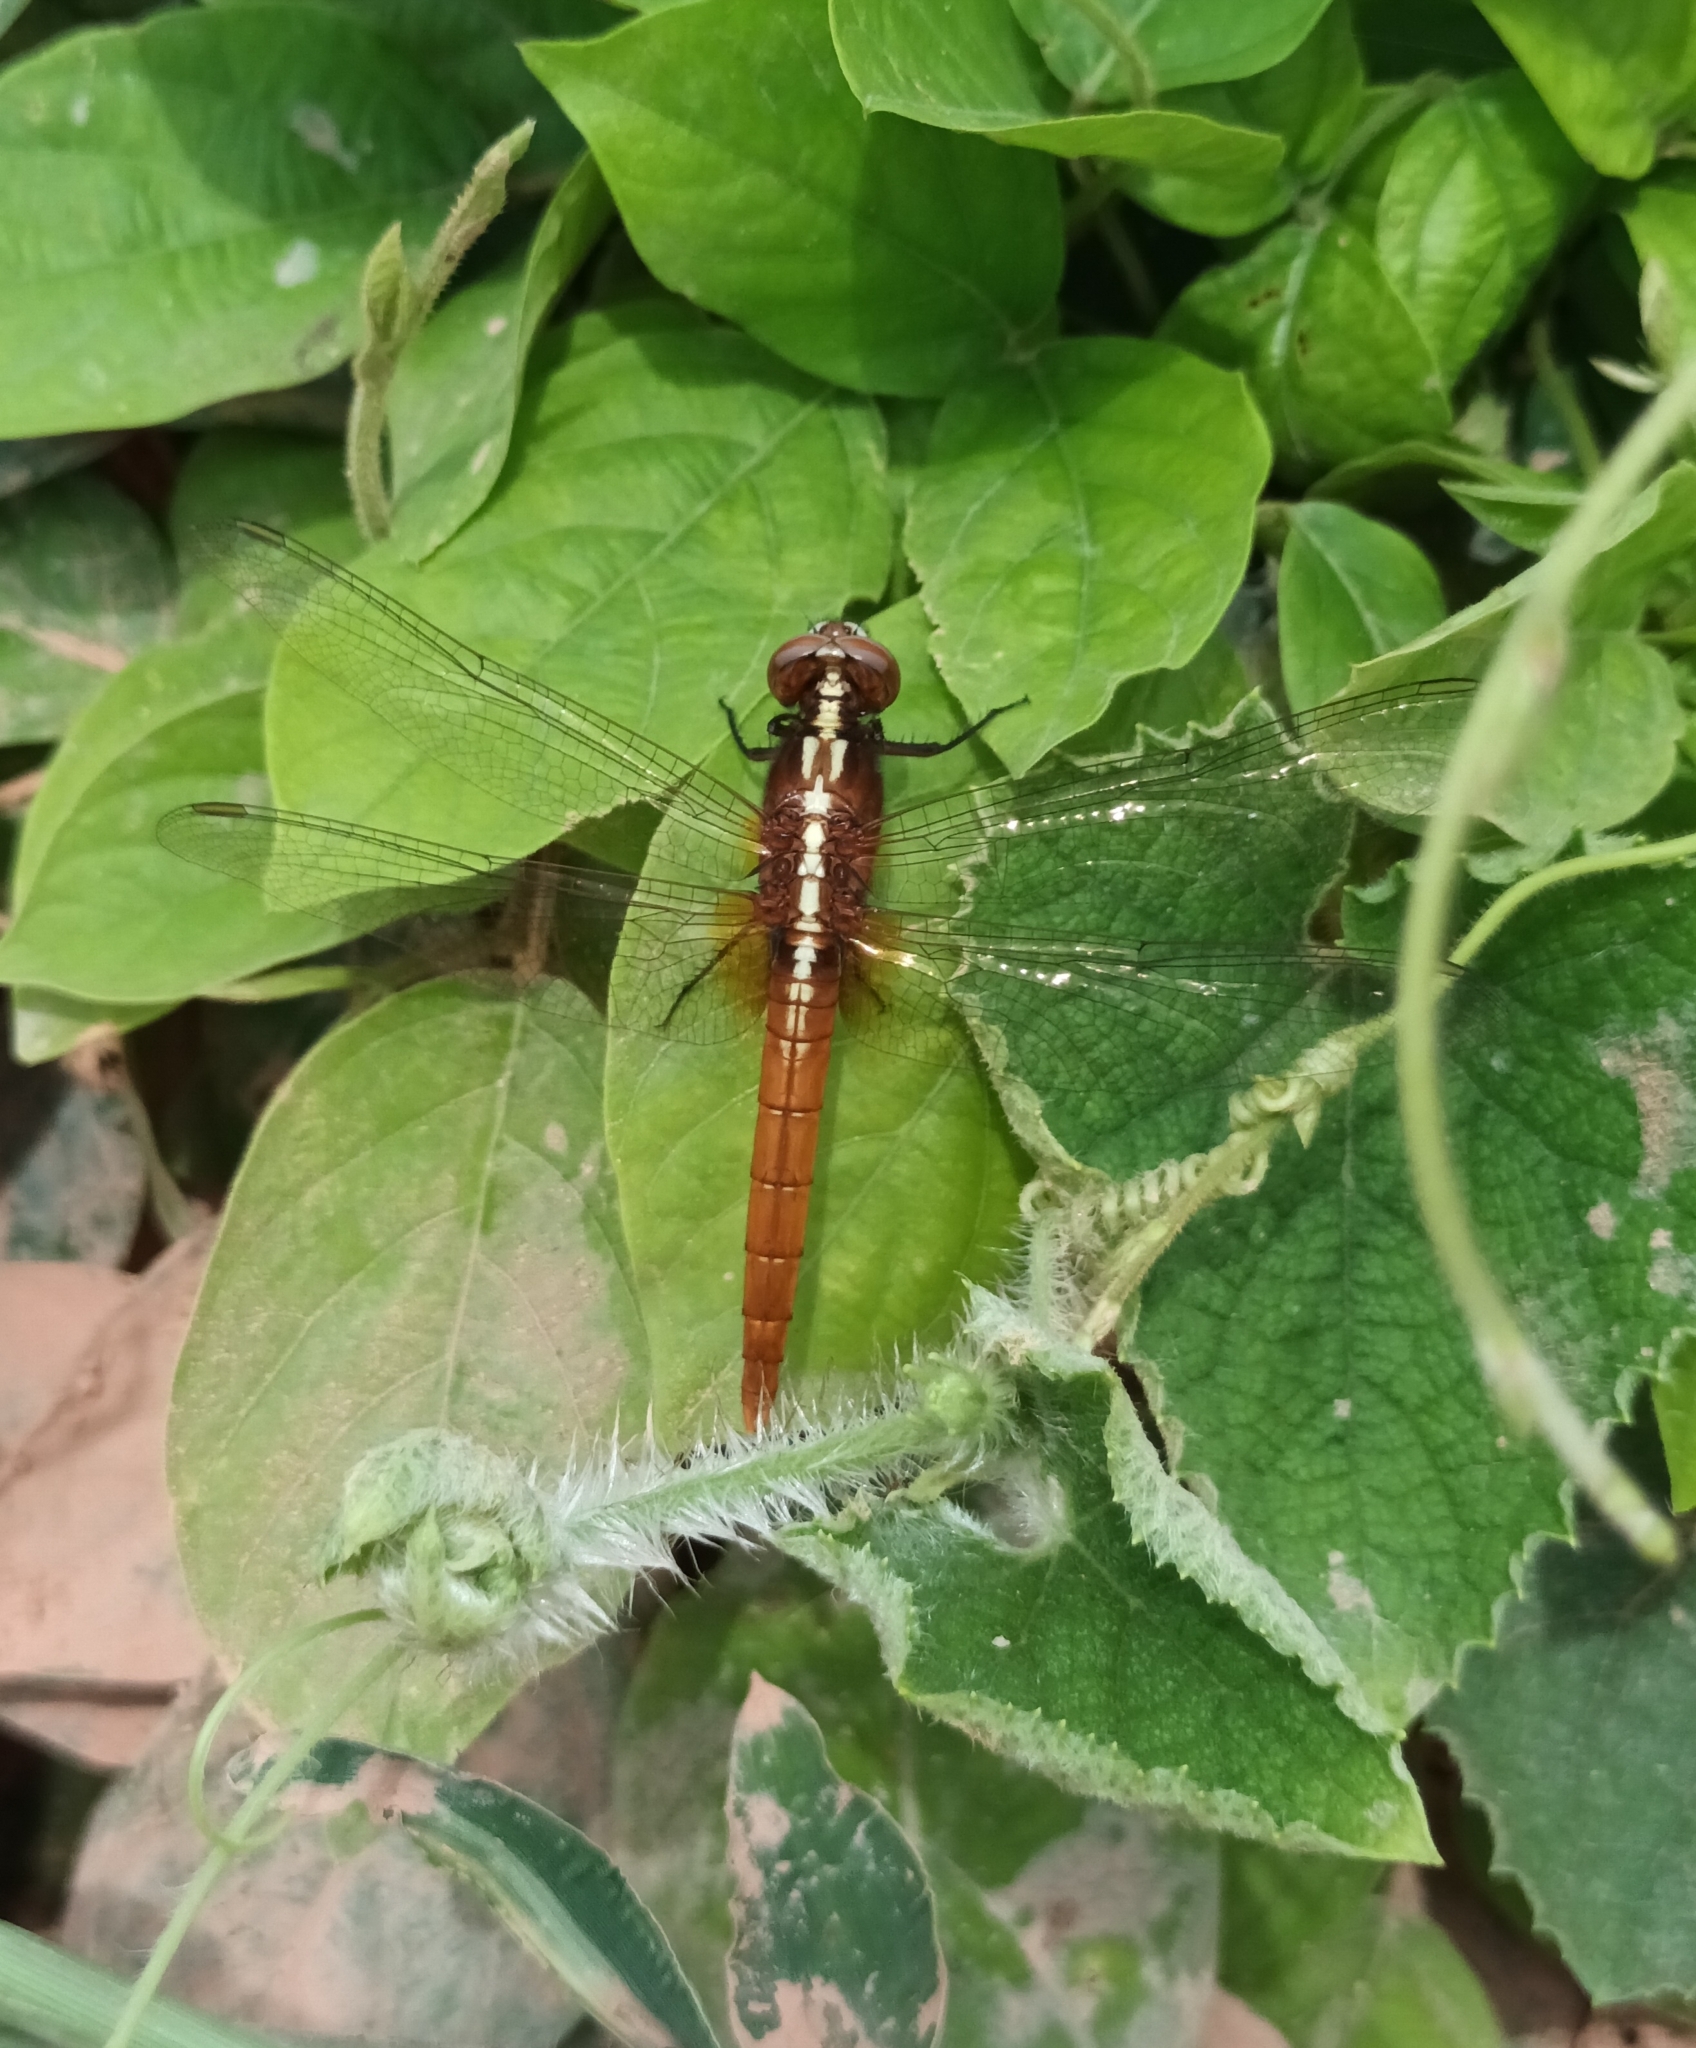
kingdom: Animalia
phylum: Arthropoda
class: Insecta
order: Odonata
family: Libellulidae
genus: Rhodothemis
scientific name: Rhodothemis rufa
